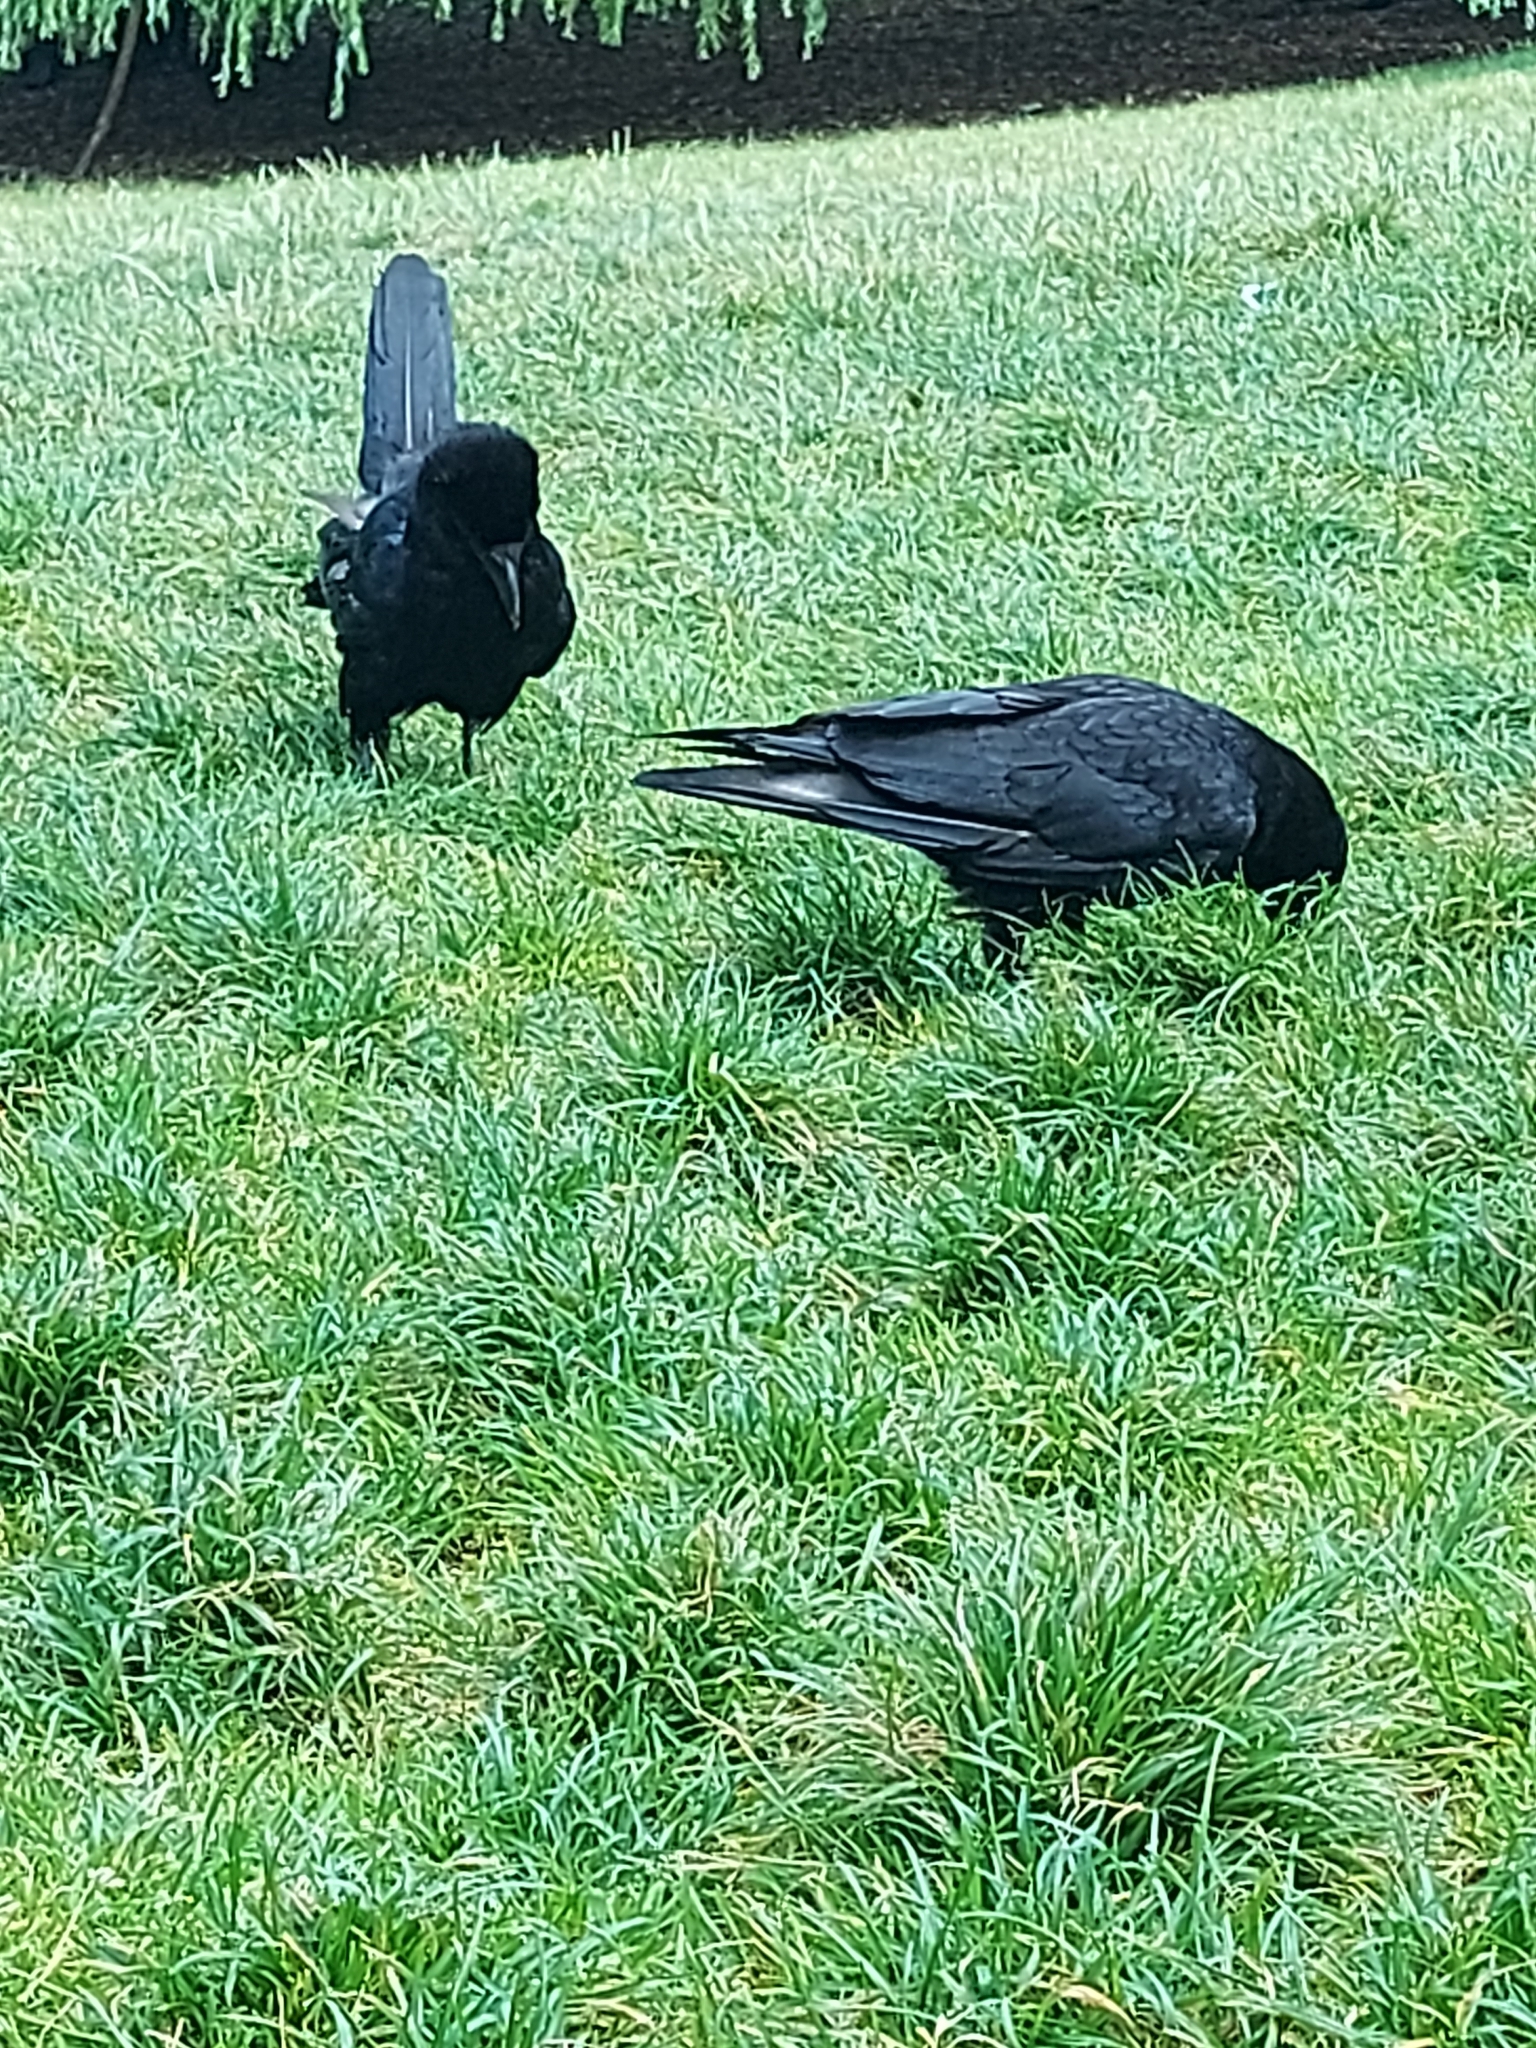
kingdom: Animalia
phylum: Chordata
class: Aves
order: Passeriformes
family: Corvidae
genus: Corvus
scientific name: Corvus corone
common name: Carrion crow
